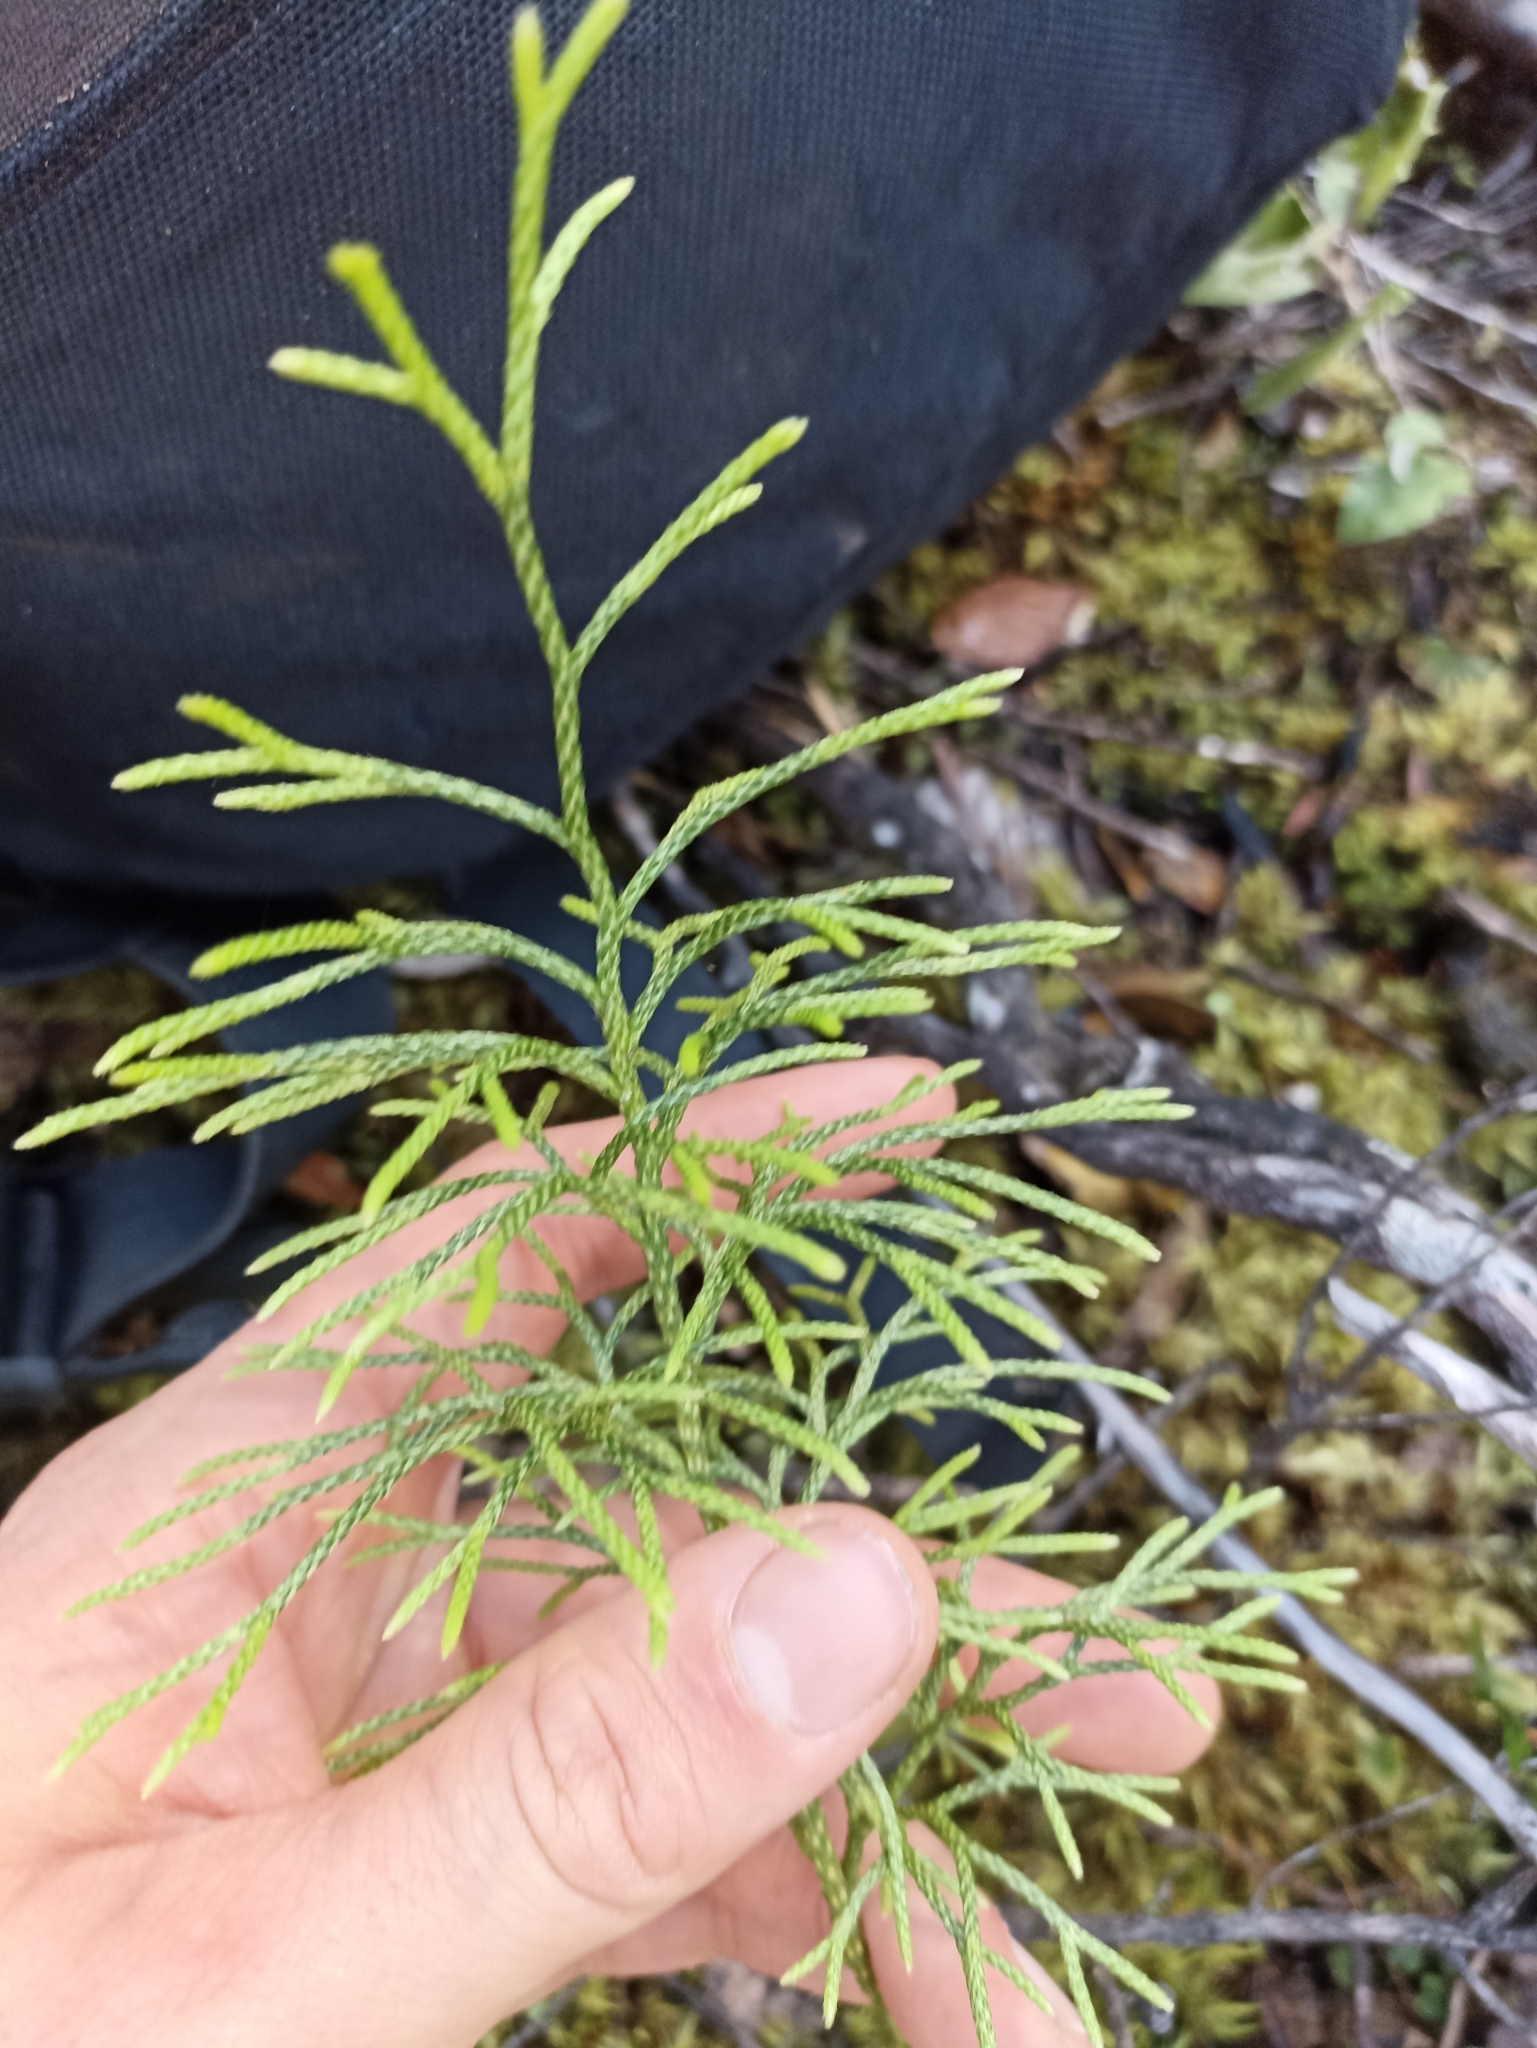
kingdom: Plantae
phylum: Tracheophyta
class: Lycopodiopsida
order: Lycopodiales
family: Lycopodiaceae
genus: Pseudolycopodium
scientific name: Pseudolycopodium densum
